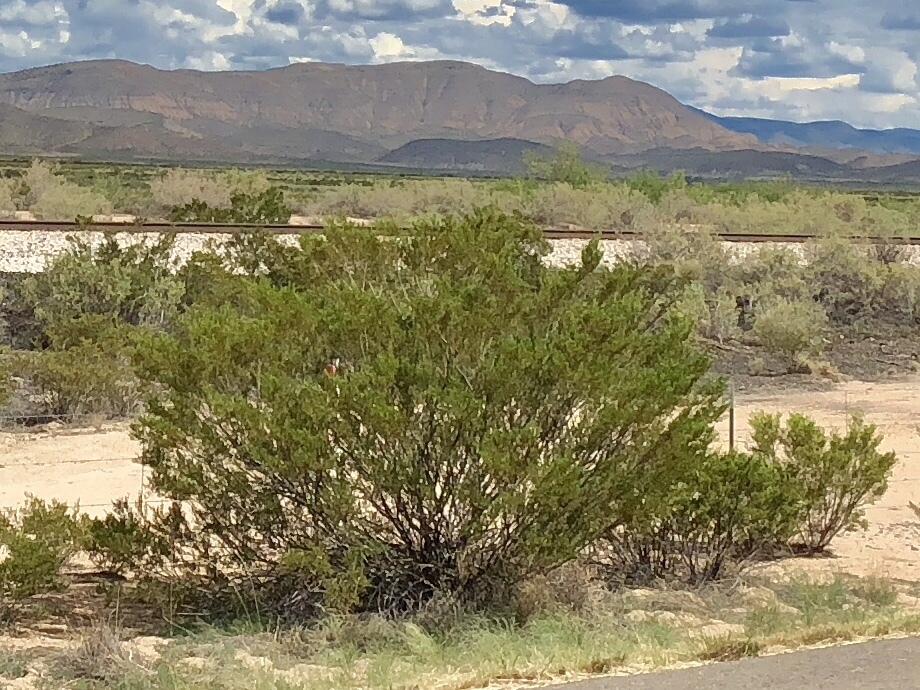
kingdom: Plantae
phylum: Tracheophyta
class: Magnoliopsida
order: Zygophyllales
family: Zygophyllaceae
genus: Larrea
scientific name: Larrea tridentata
